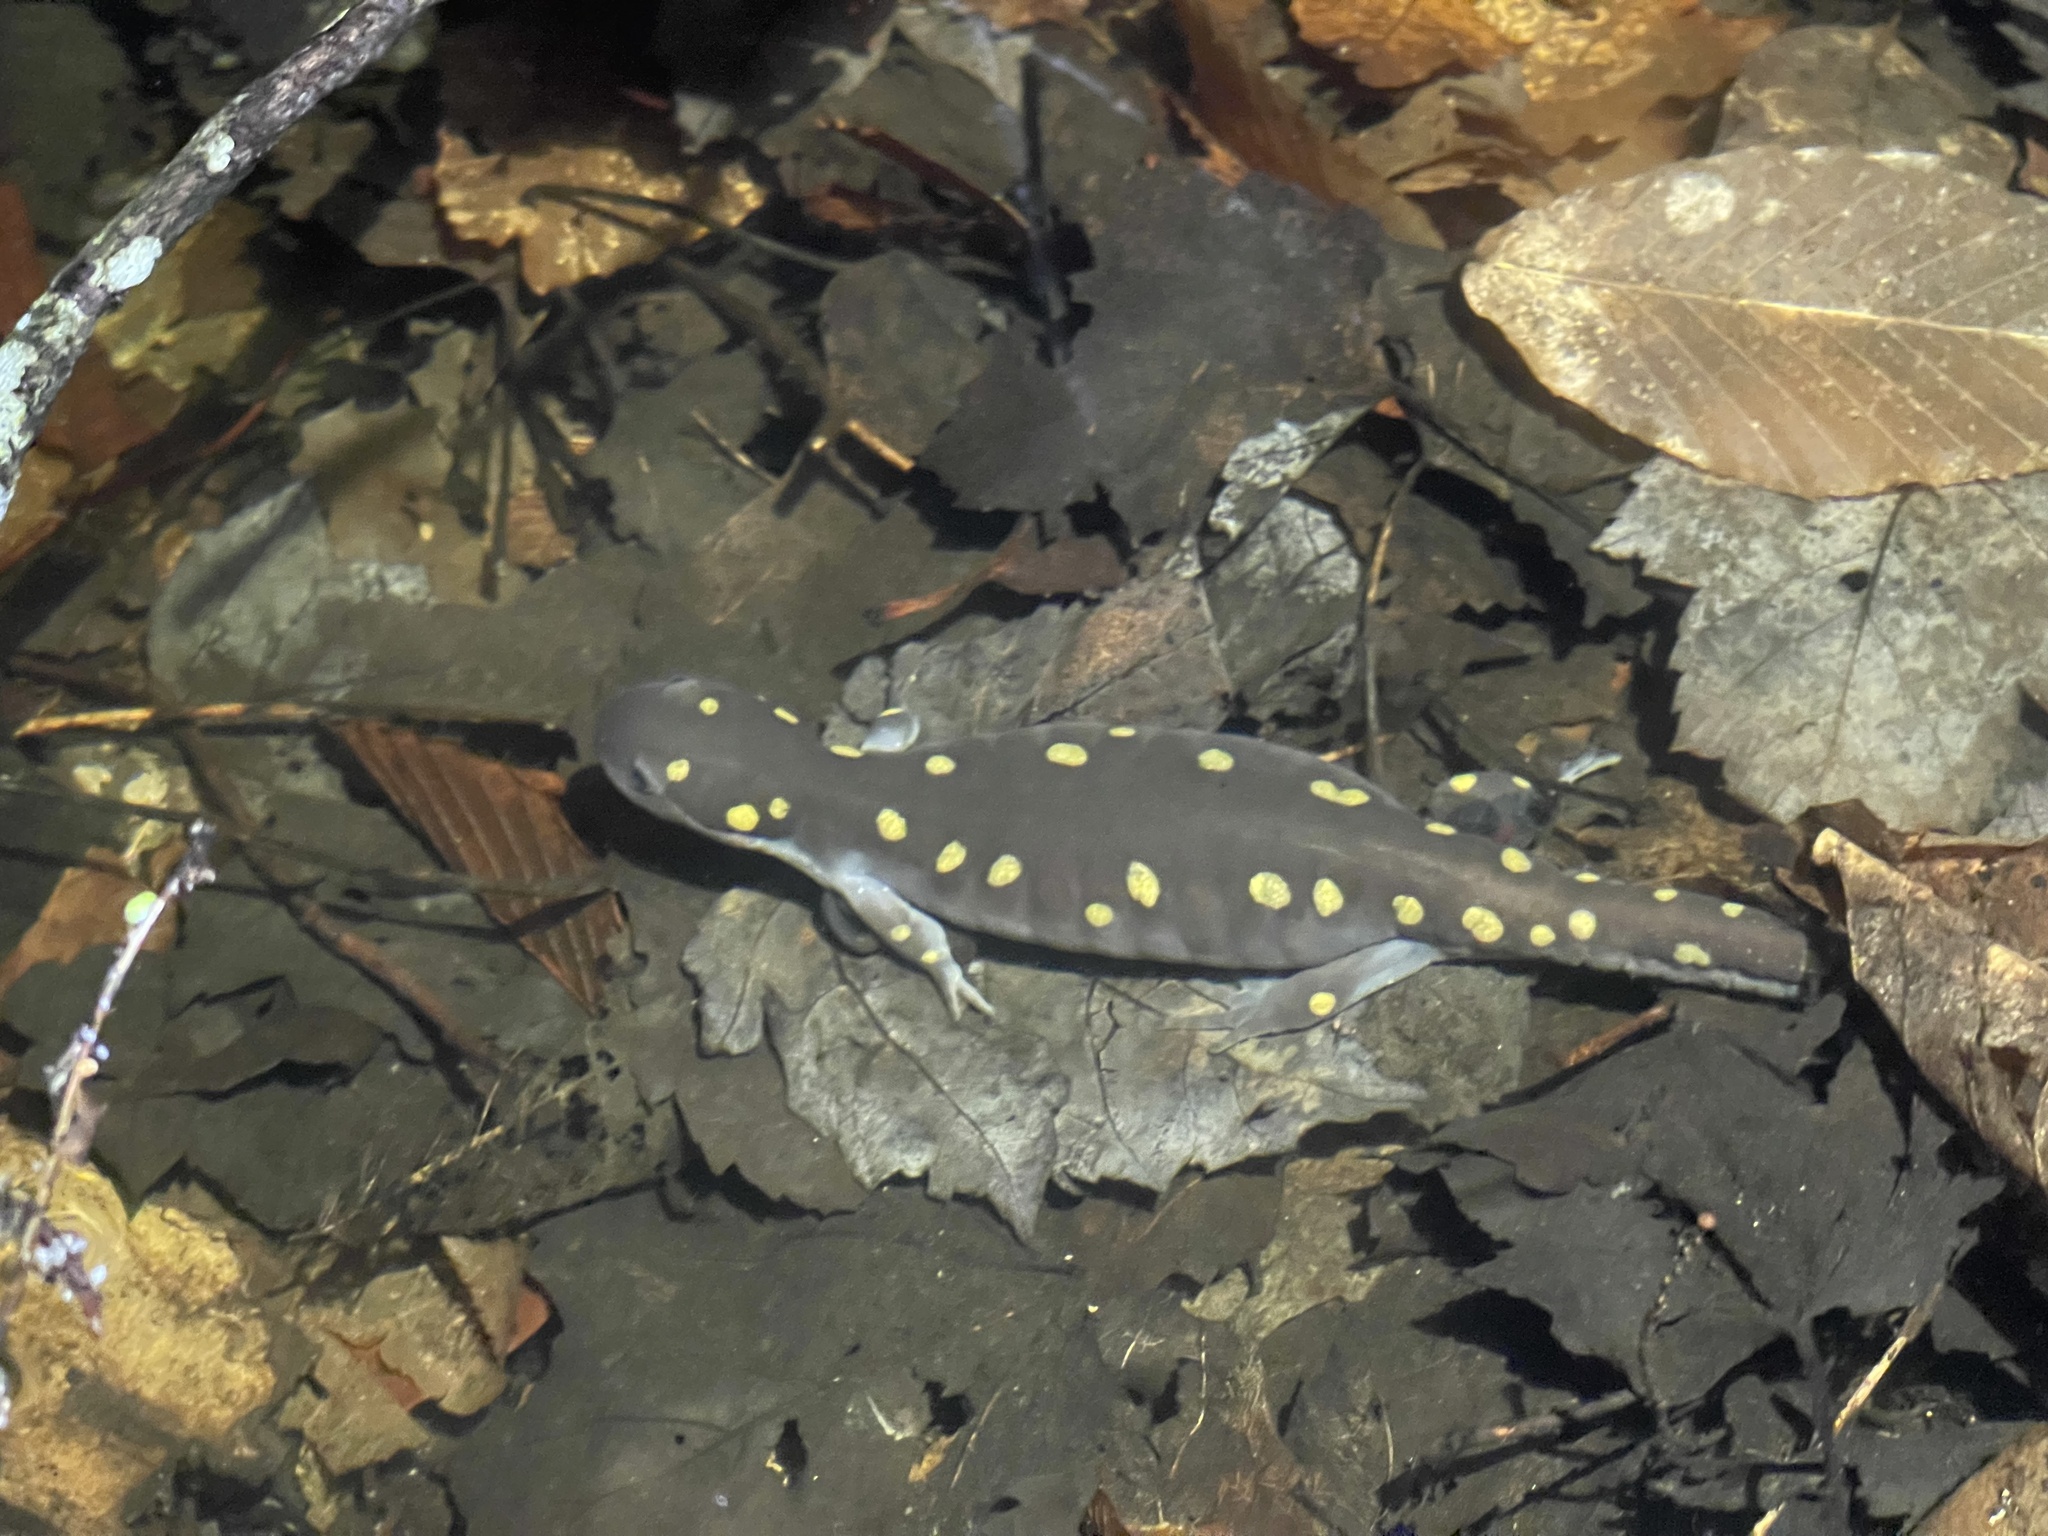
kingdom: Animalia
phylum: Chordata
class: Amphibia
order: Caudata
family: Ambystomatidae
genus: Ambystoma
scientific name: Ambystoma maculatum
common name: Spotted salamander
